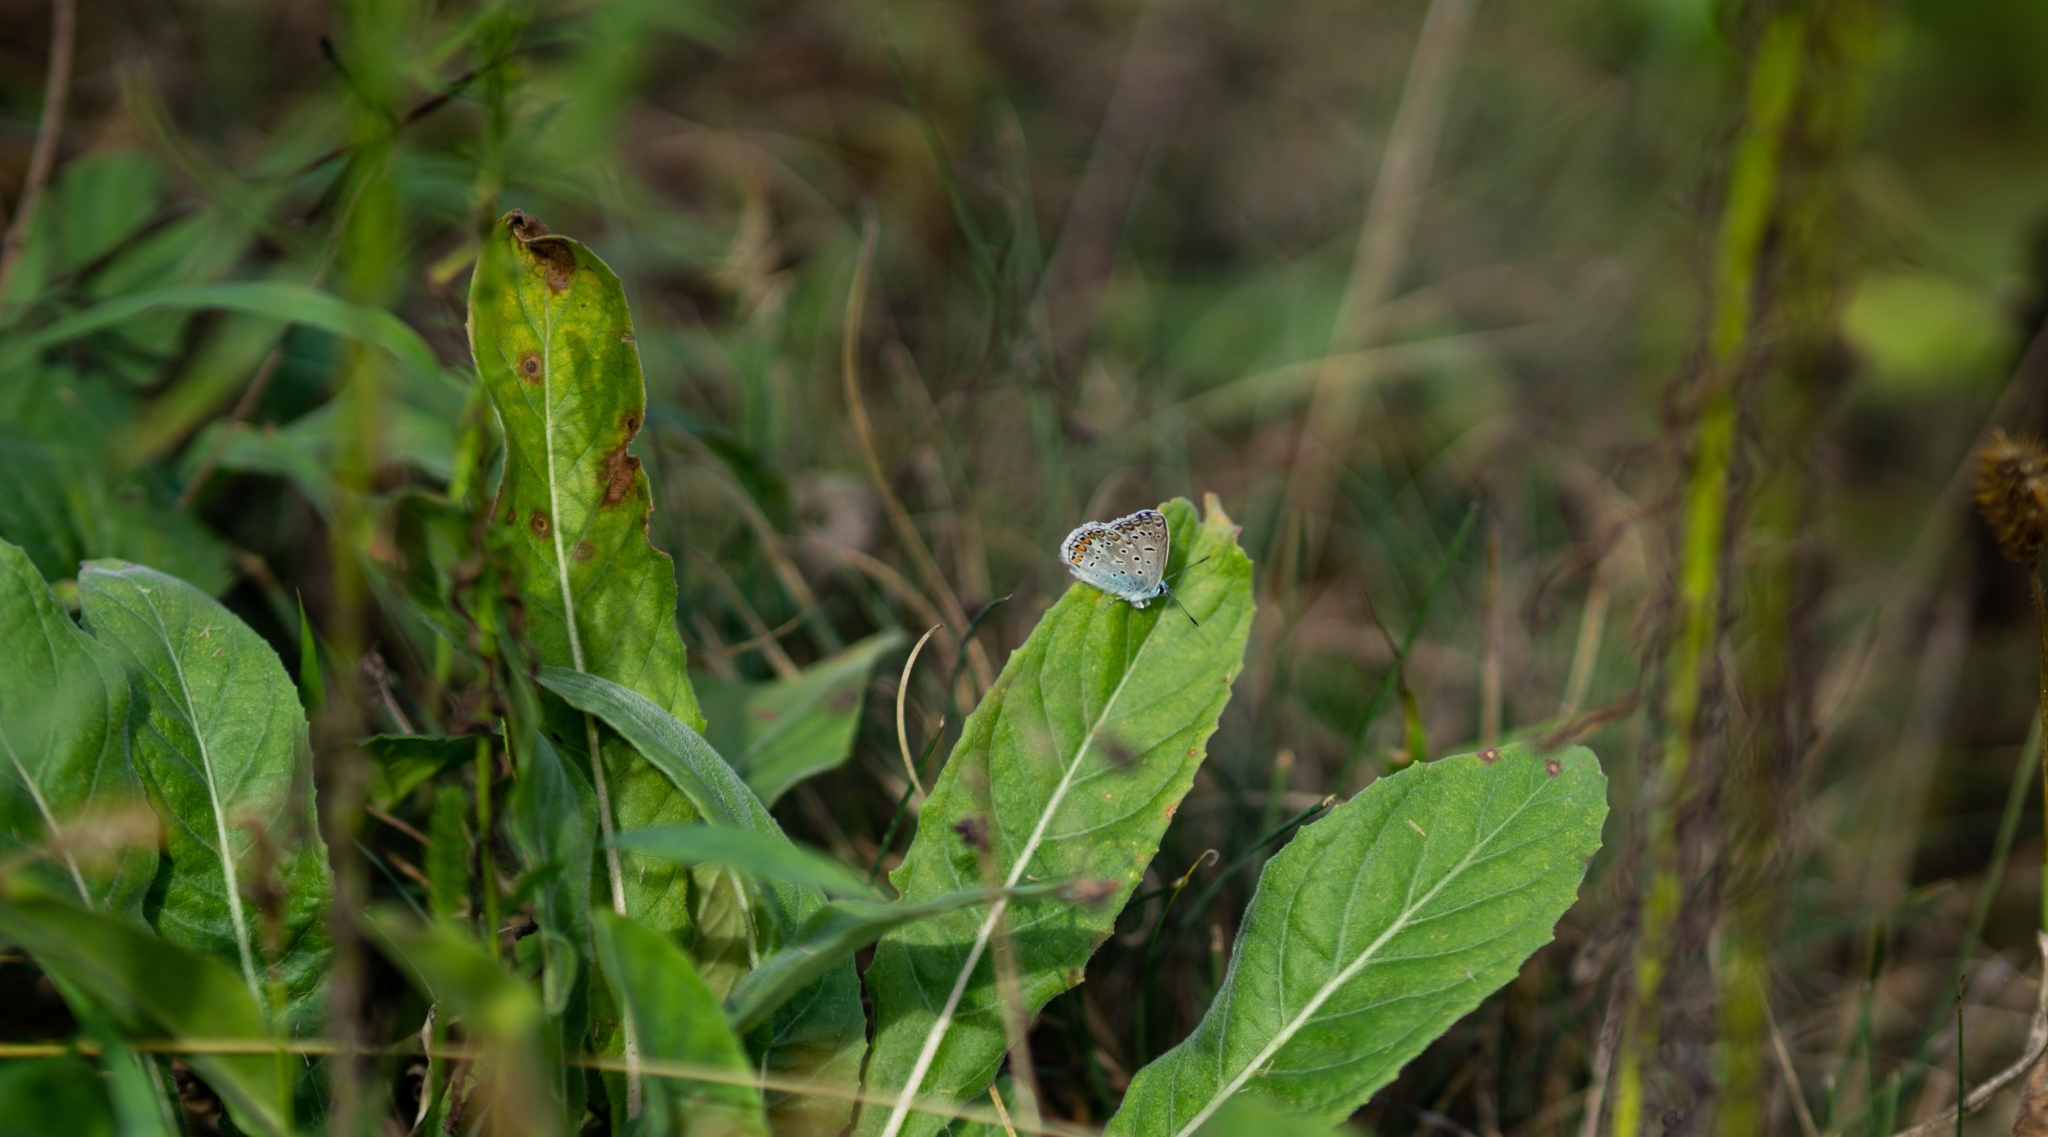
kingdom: Animalia
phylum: Arthropoda
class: Insecta
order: Lepidoptera
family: Lycaenidae
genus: Polyommatus
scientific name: Polyommatus icarus
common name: Common blue
